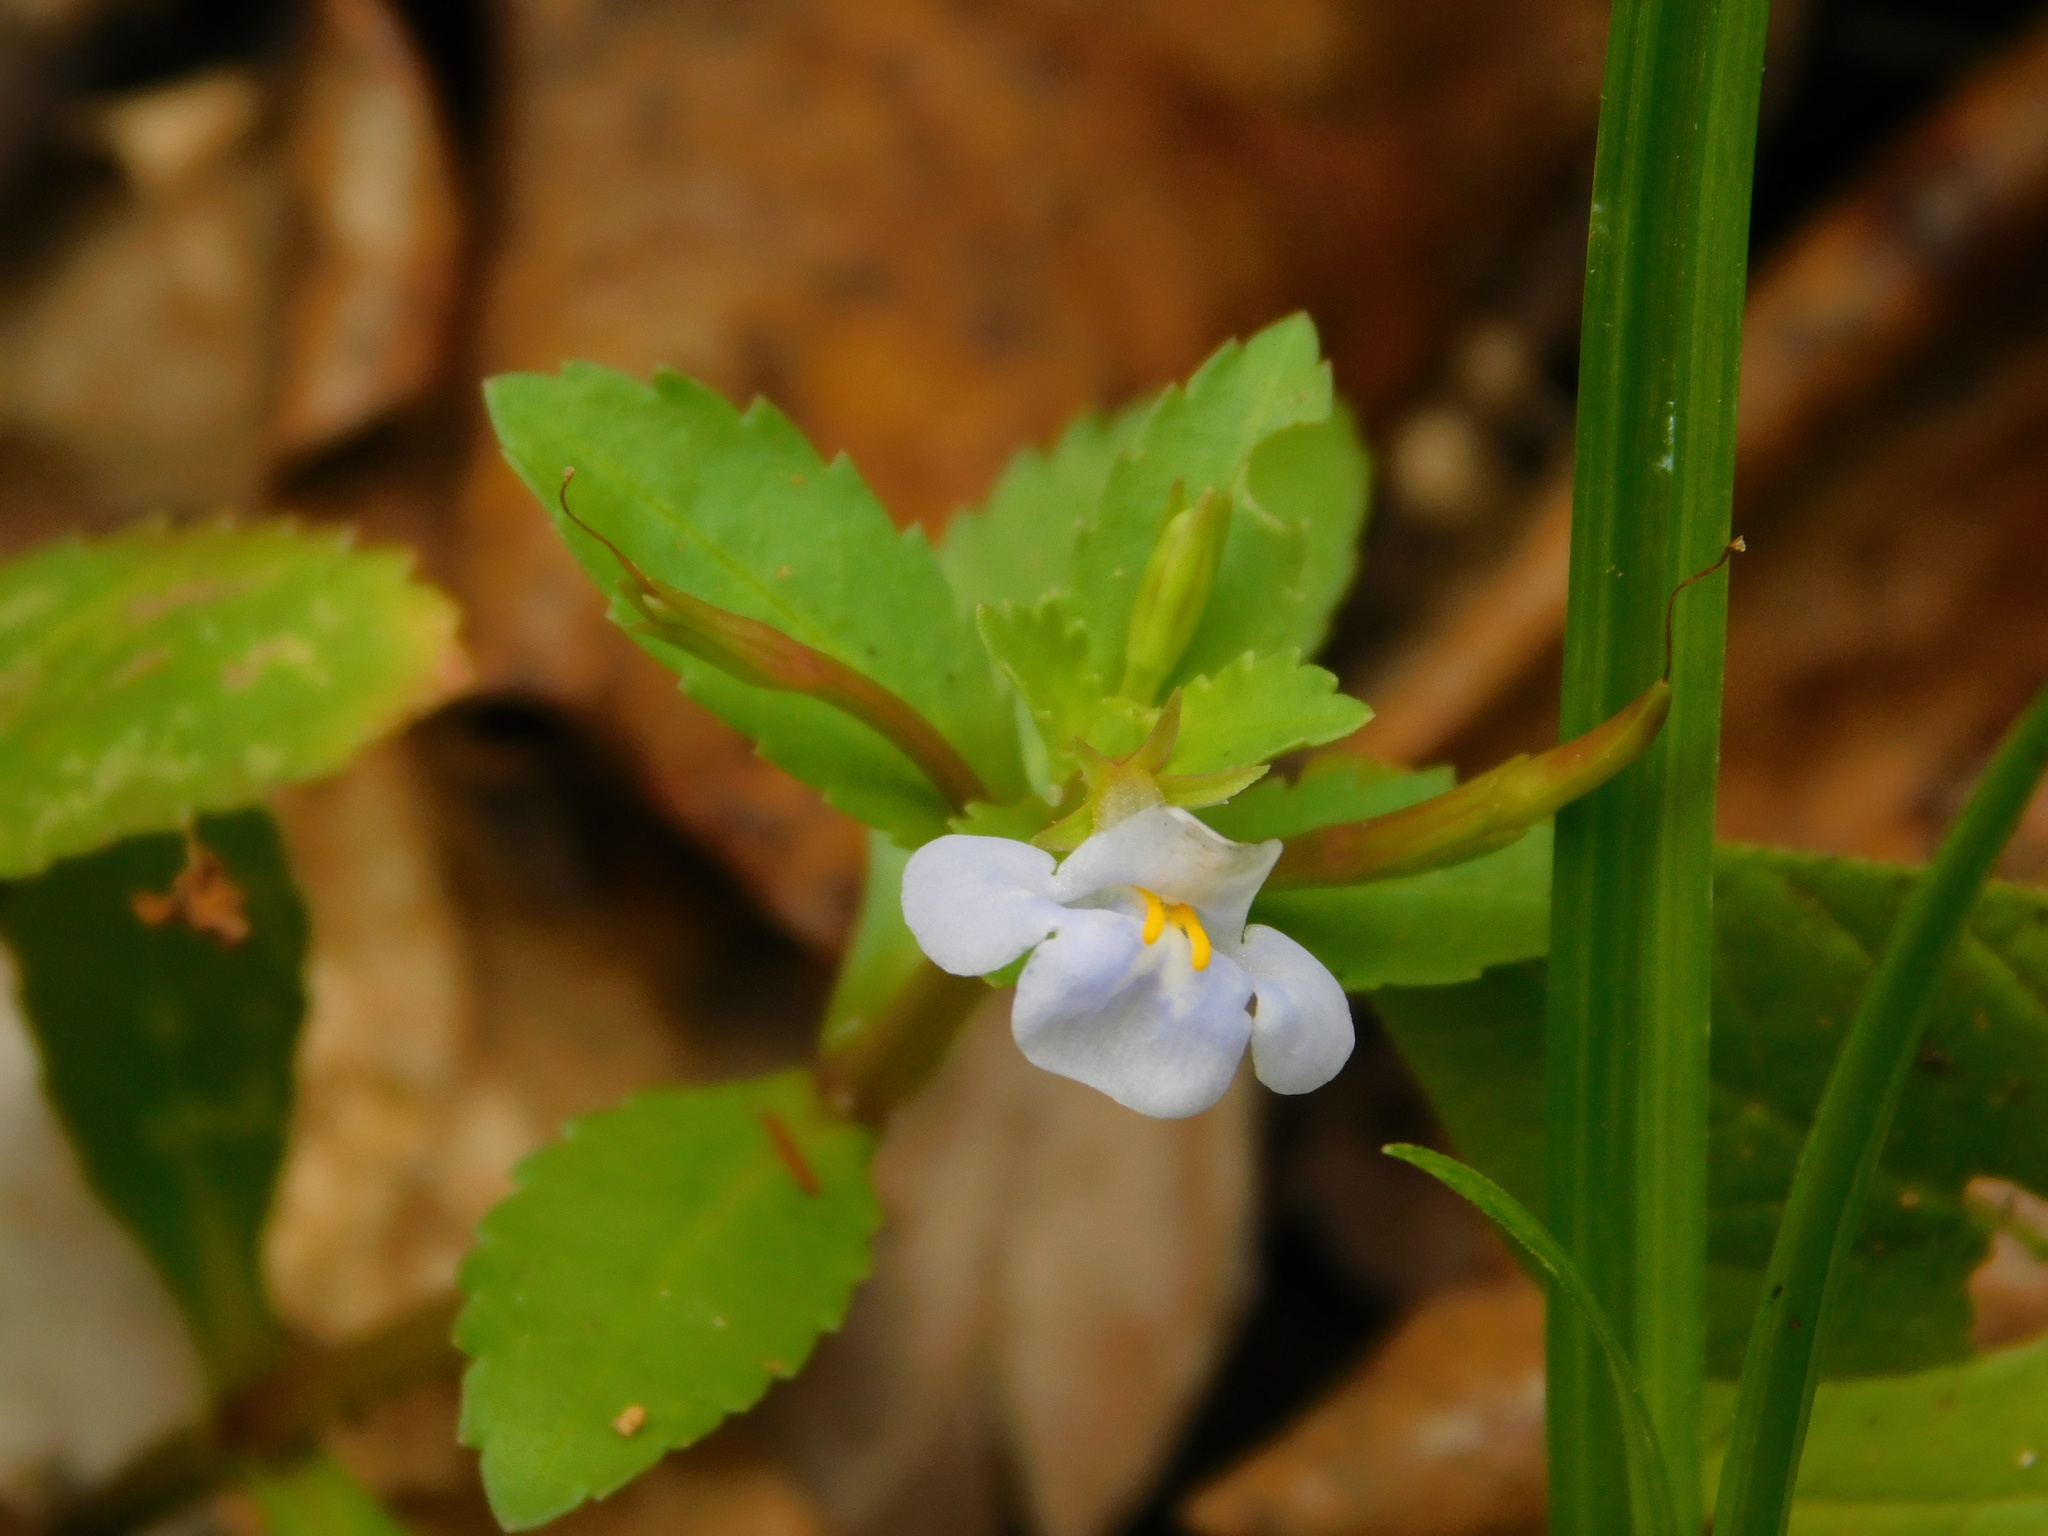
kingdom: Plantae
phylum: Tracheophyta
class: Magnoliopsida
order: Lamiales
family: Linderniaceae
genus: Bonnaya
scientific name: Bonnaya antipoda
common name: Sparrow false pimpernel
